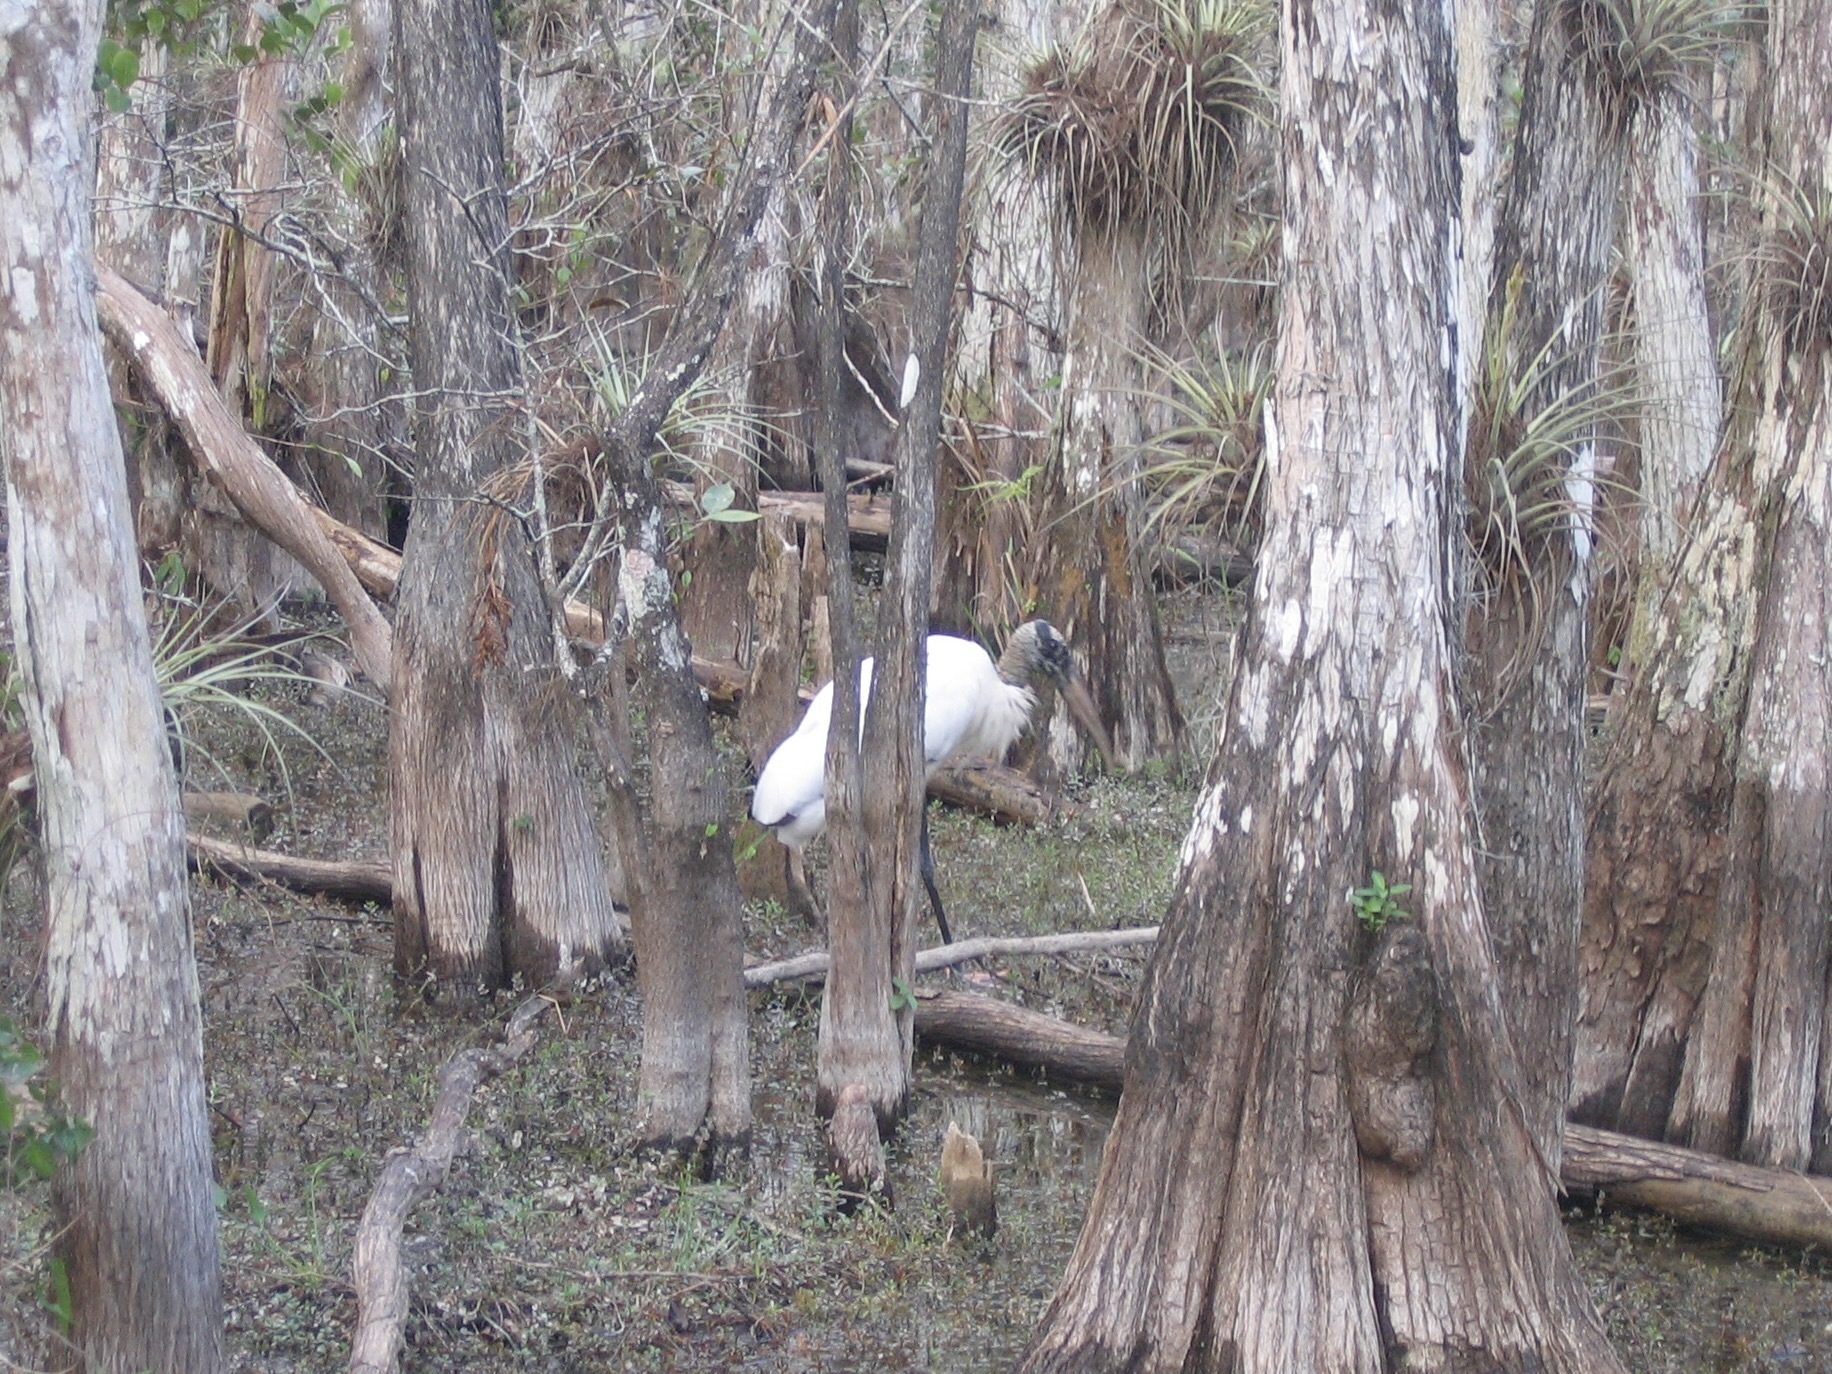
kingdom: Animalia
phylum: Chordata
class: Aves
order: Ciconiiformes
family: Ciconiidae
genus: Mycteria
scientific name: Mycteria americana
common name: Wood stork
